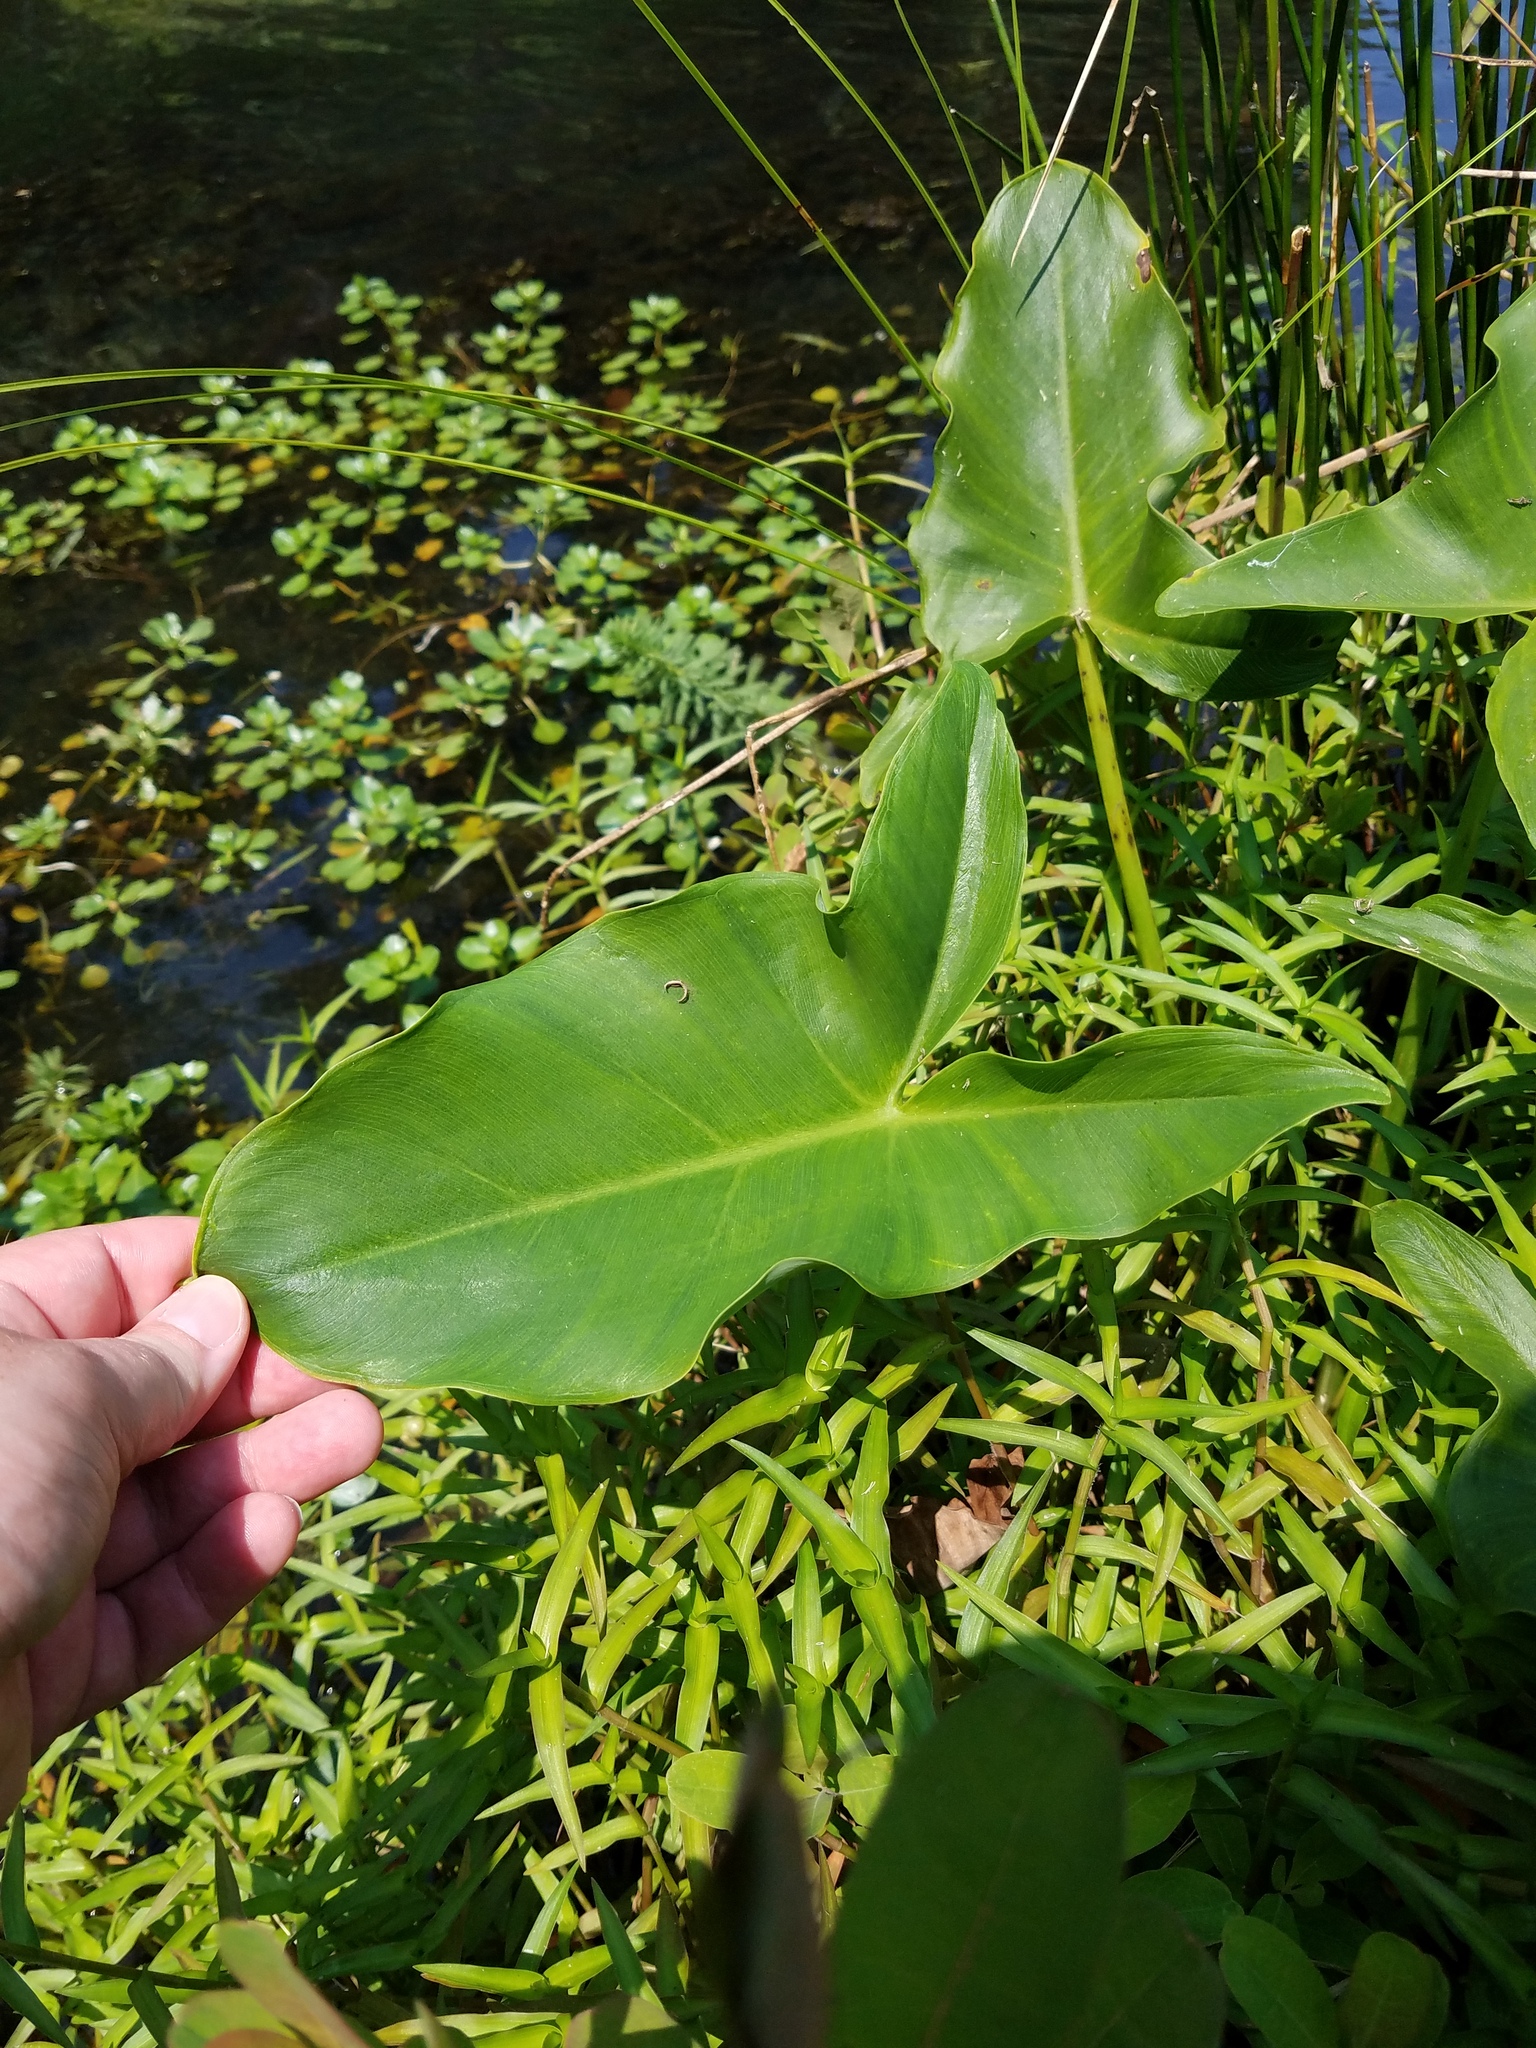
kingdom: Plantae
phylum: Tracheophyta
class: Liliopsida
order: Alismatales
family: Araceae
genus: Peltandra
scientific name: Peltandra virginica
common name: Arrow arum
